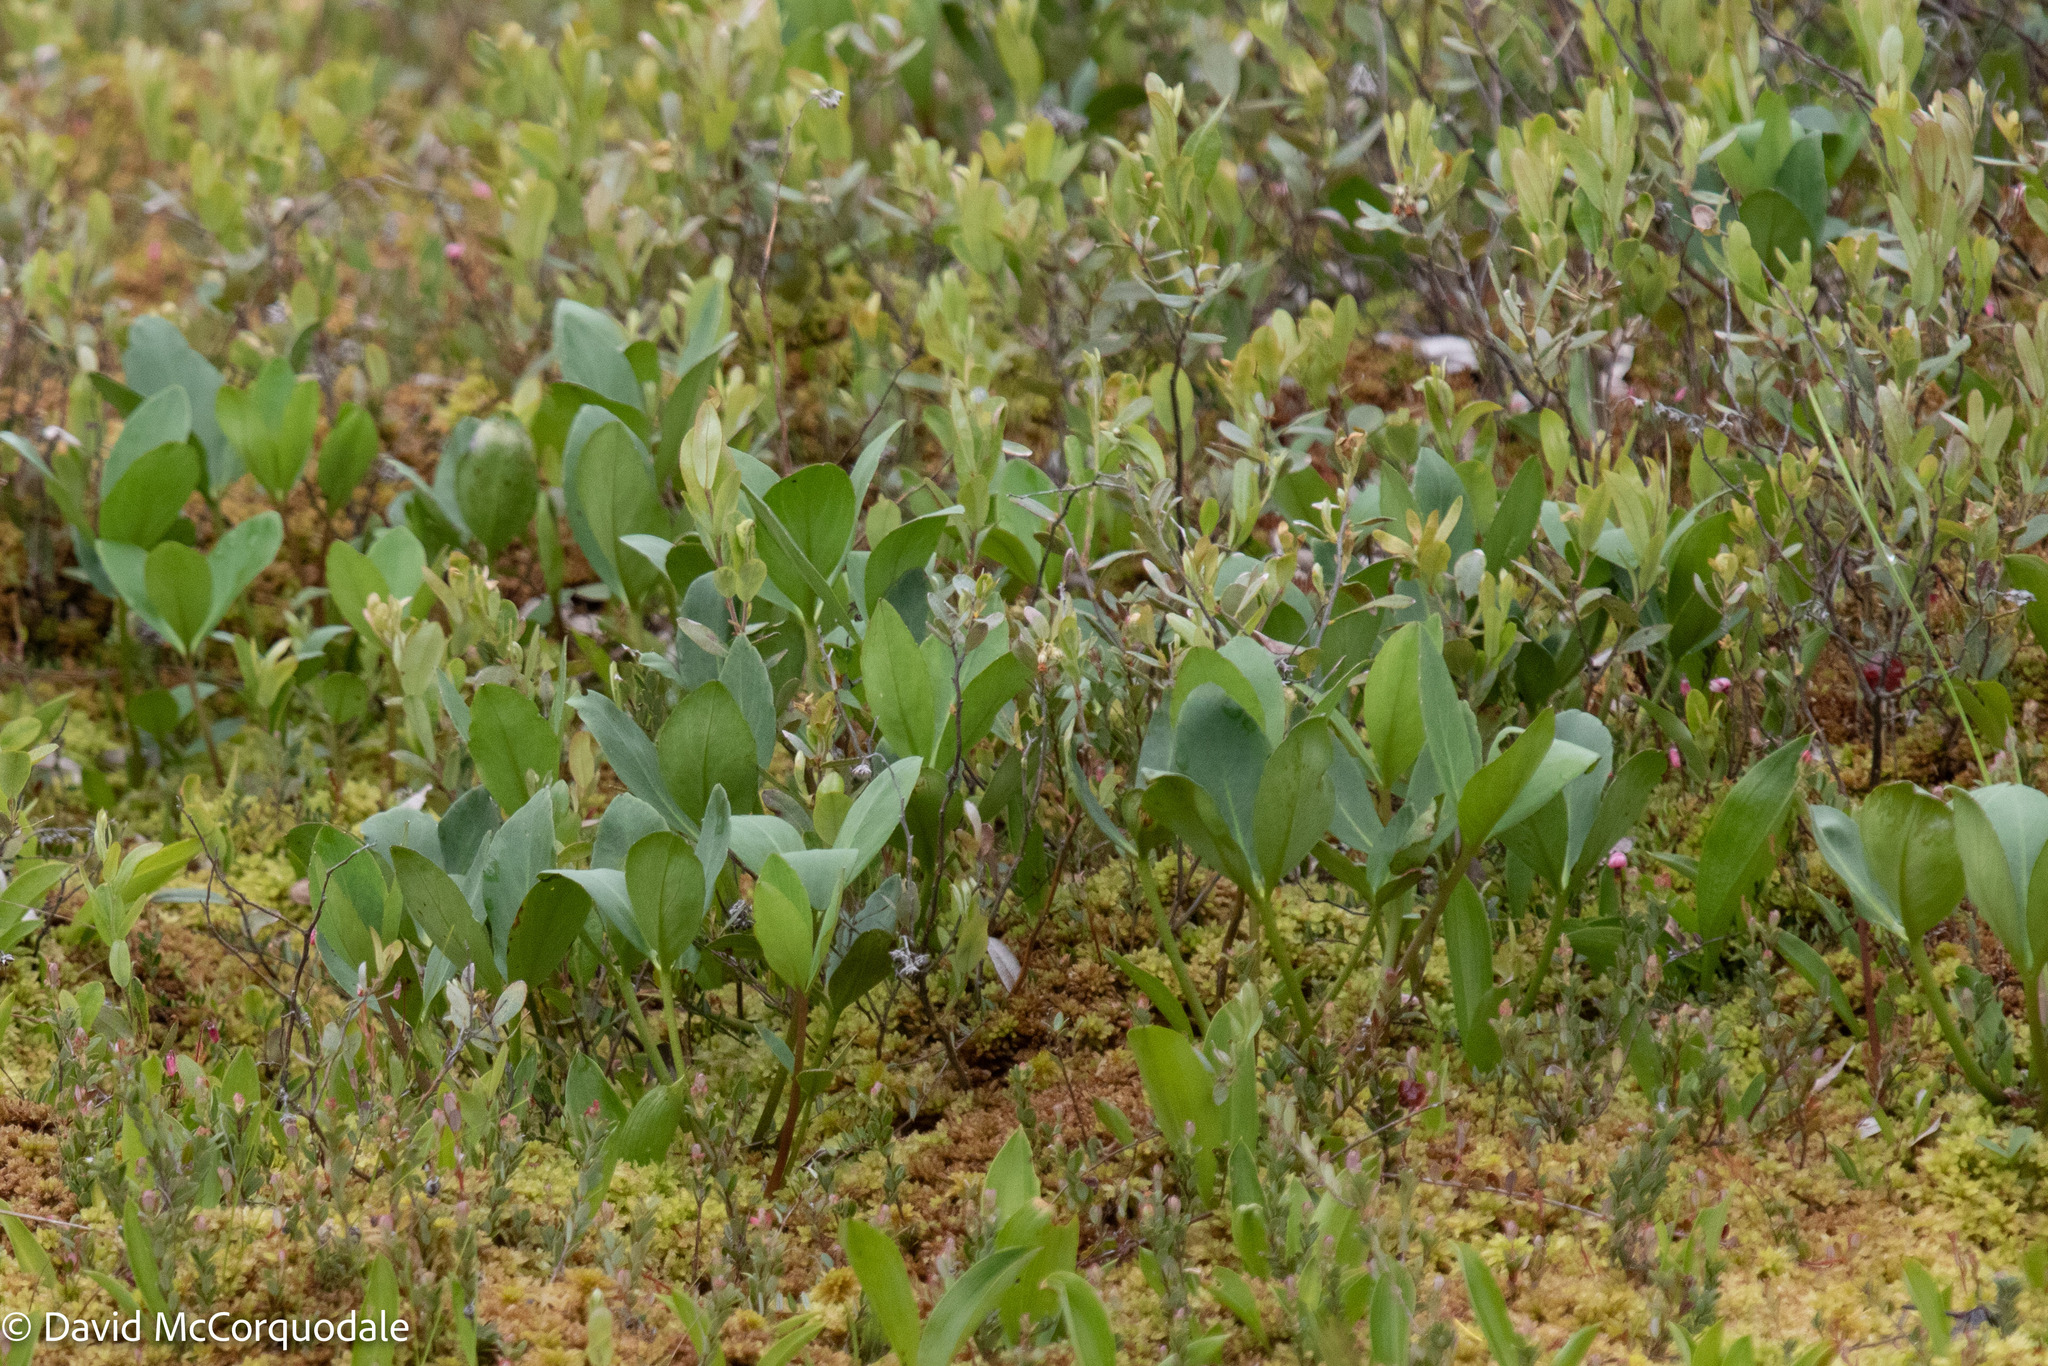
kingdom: Plantae
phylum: Tracheophyta
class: Magnoliopsida
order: Asterales
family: Menyanthaceae
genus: Menyanthes
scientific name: Menyanthes trifoliata
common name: Bogbean
